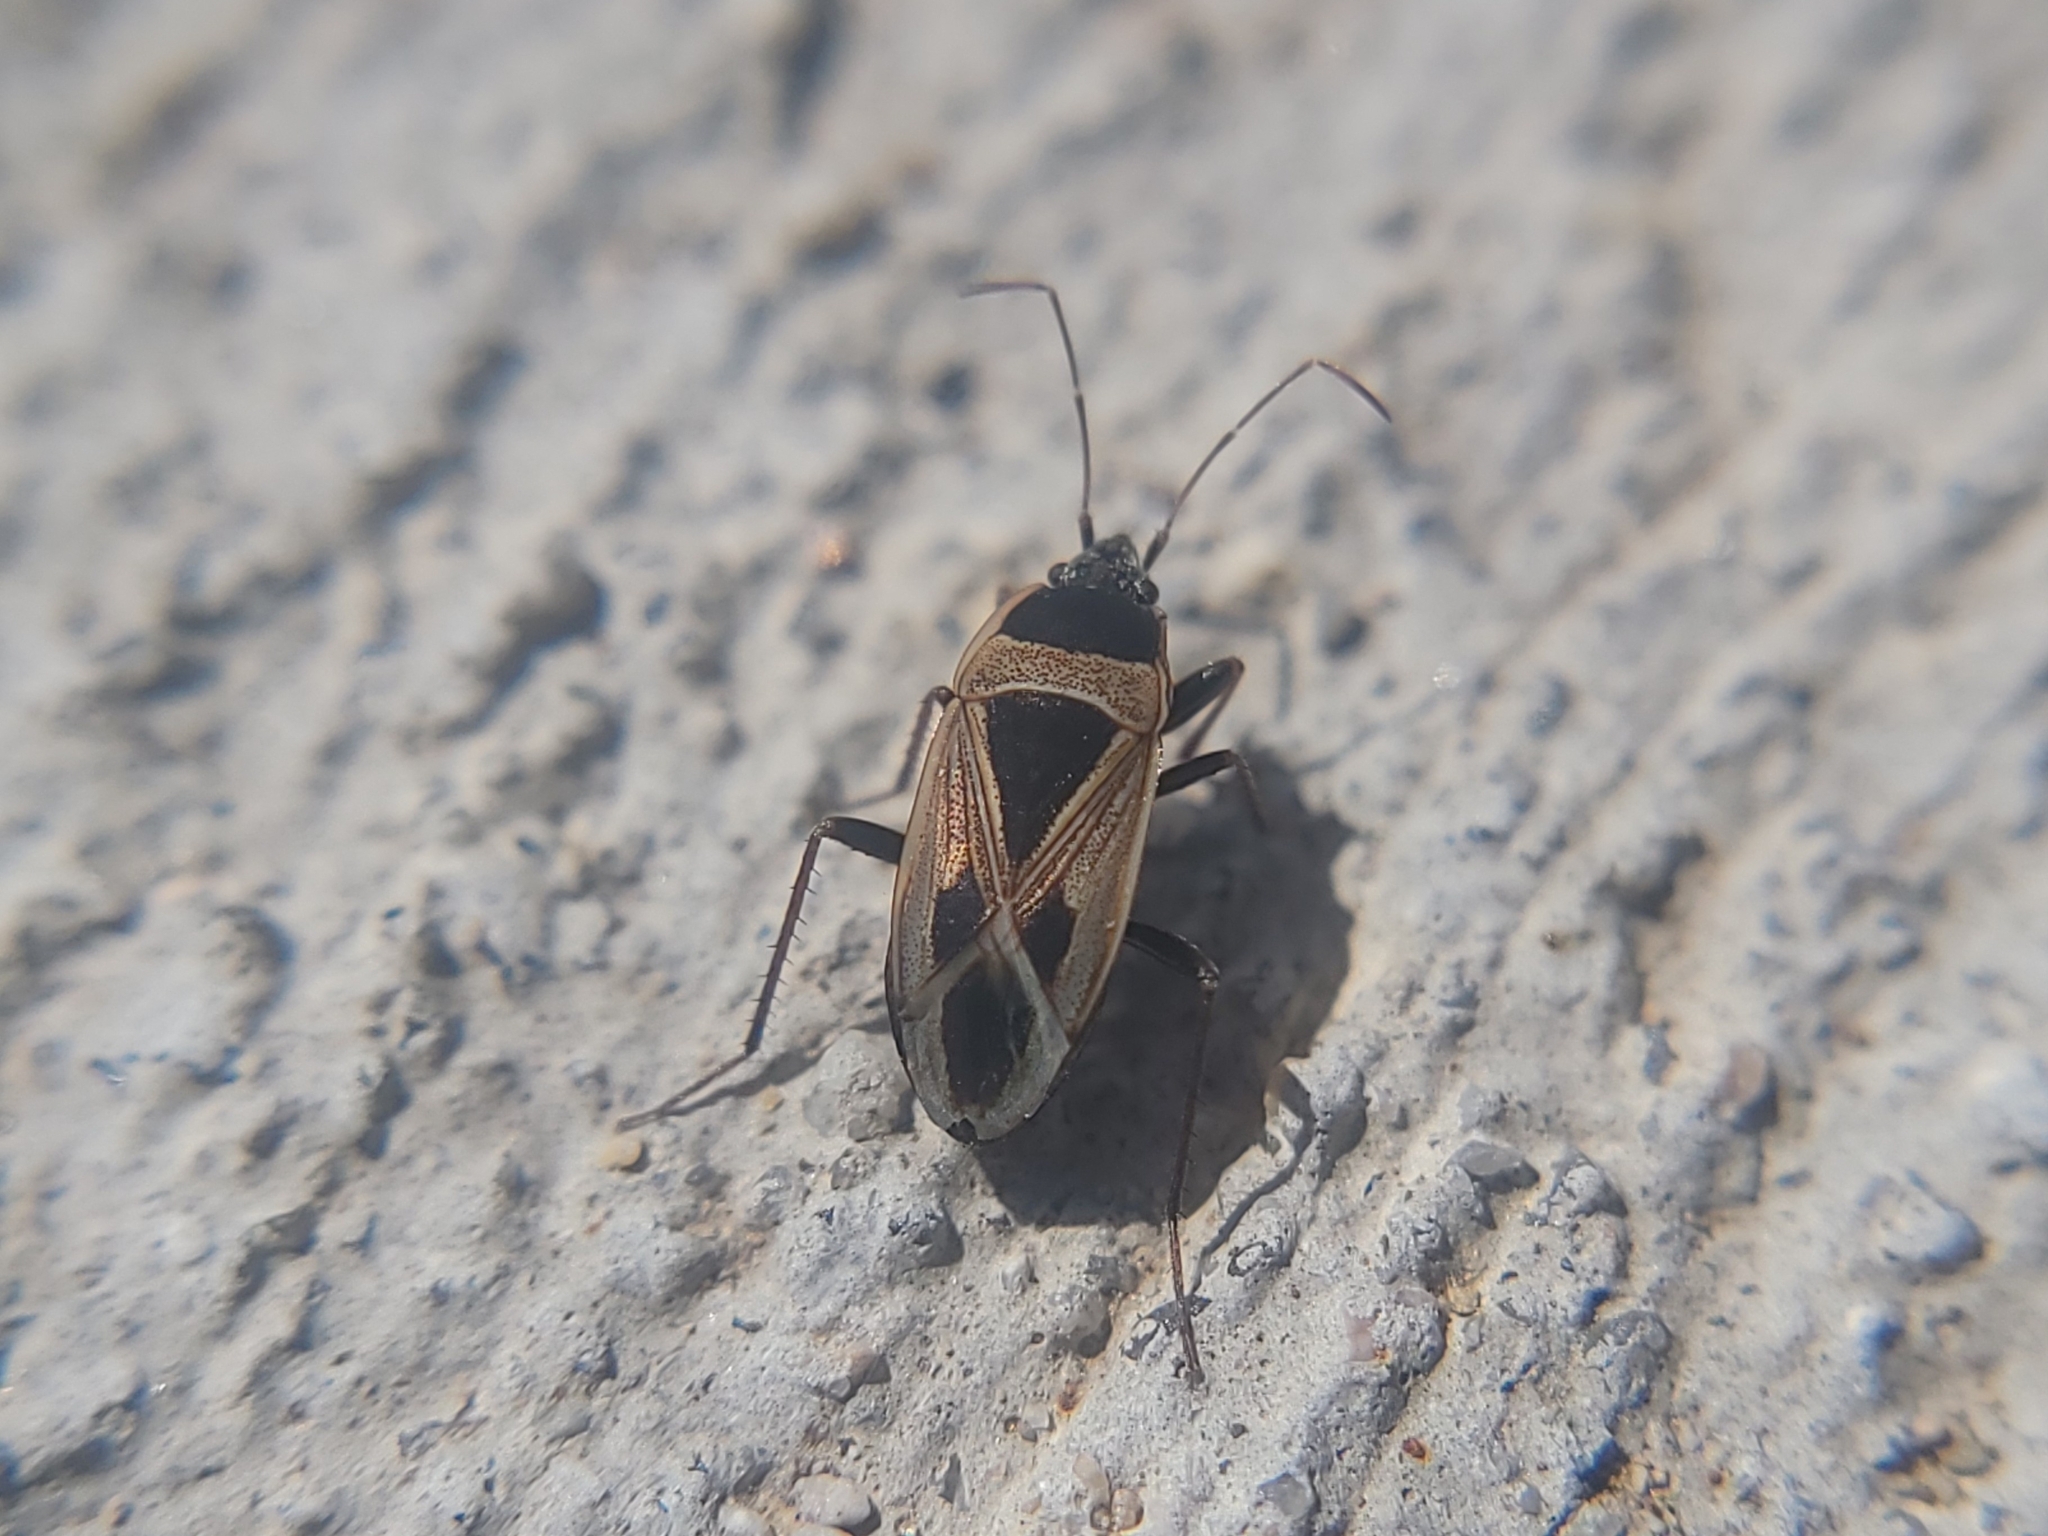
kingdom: Animalia
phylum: Arthropoda
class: Insecta
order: Hemiptera
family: Rhyparochromidae
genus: Xanthochilus
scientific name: Xanthochilus saturnius
